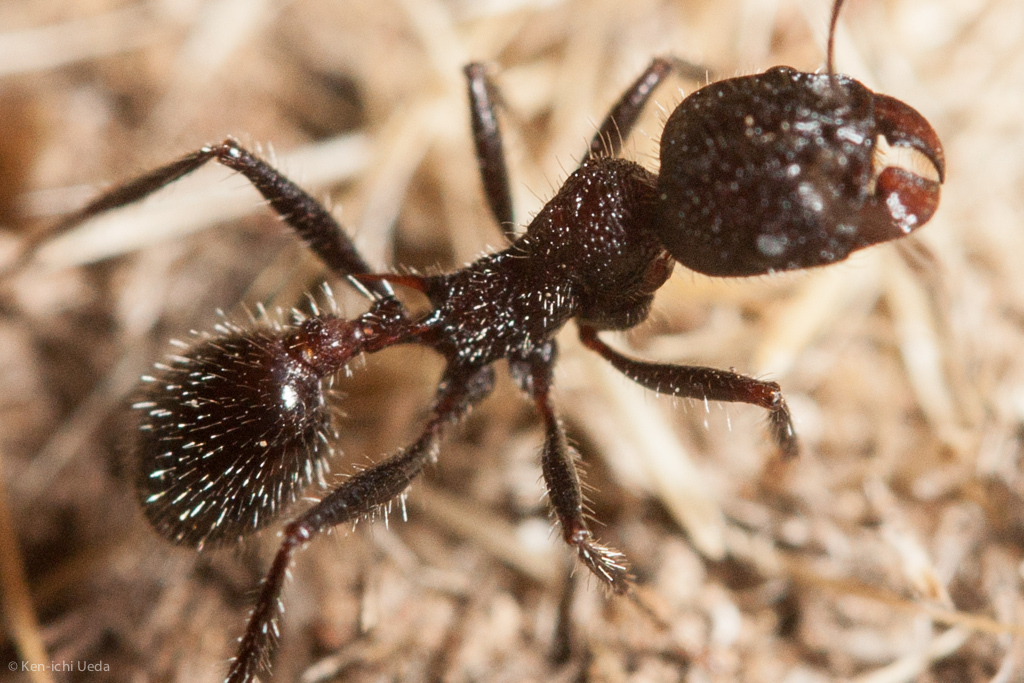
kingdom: Animalia
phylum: Arthropoda
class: Insecta
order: Hymenoptera
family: Formicidae
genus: Veromessor
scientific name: Veromessor andrei
